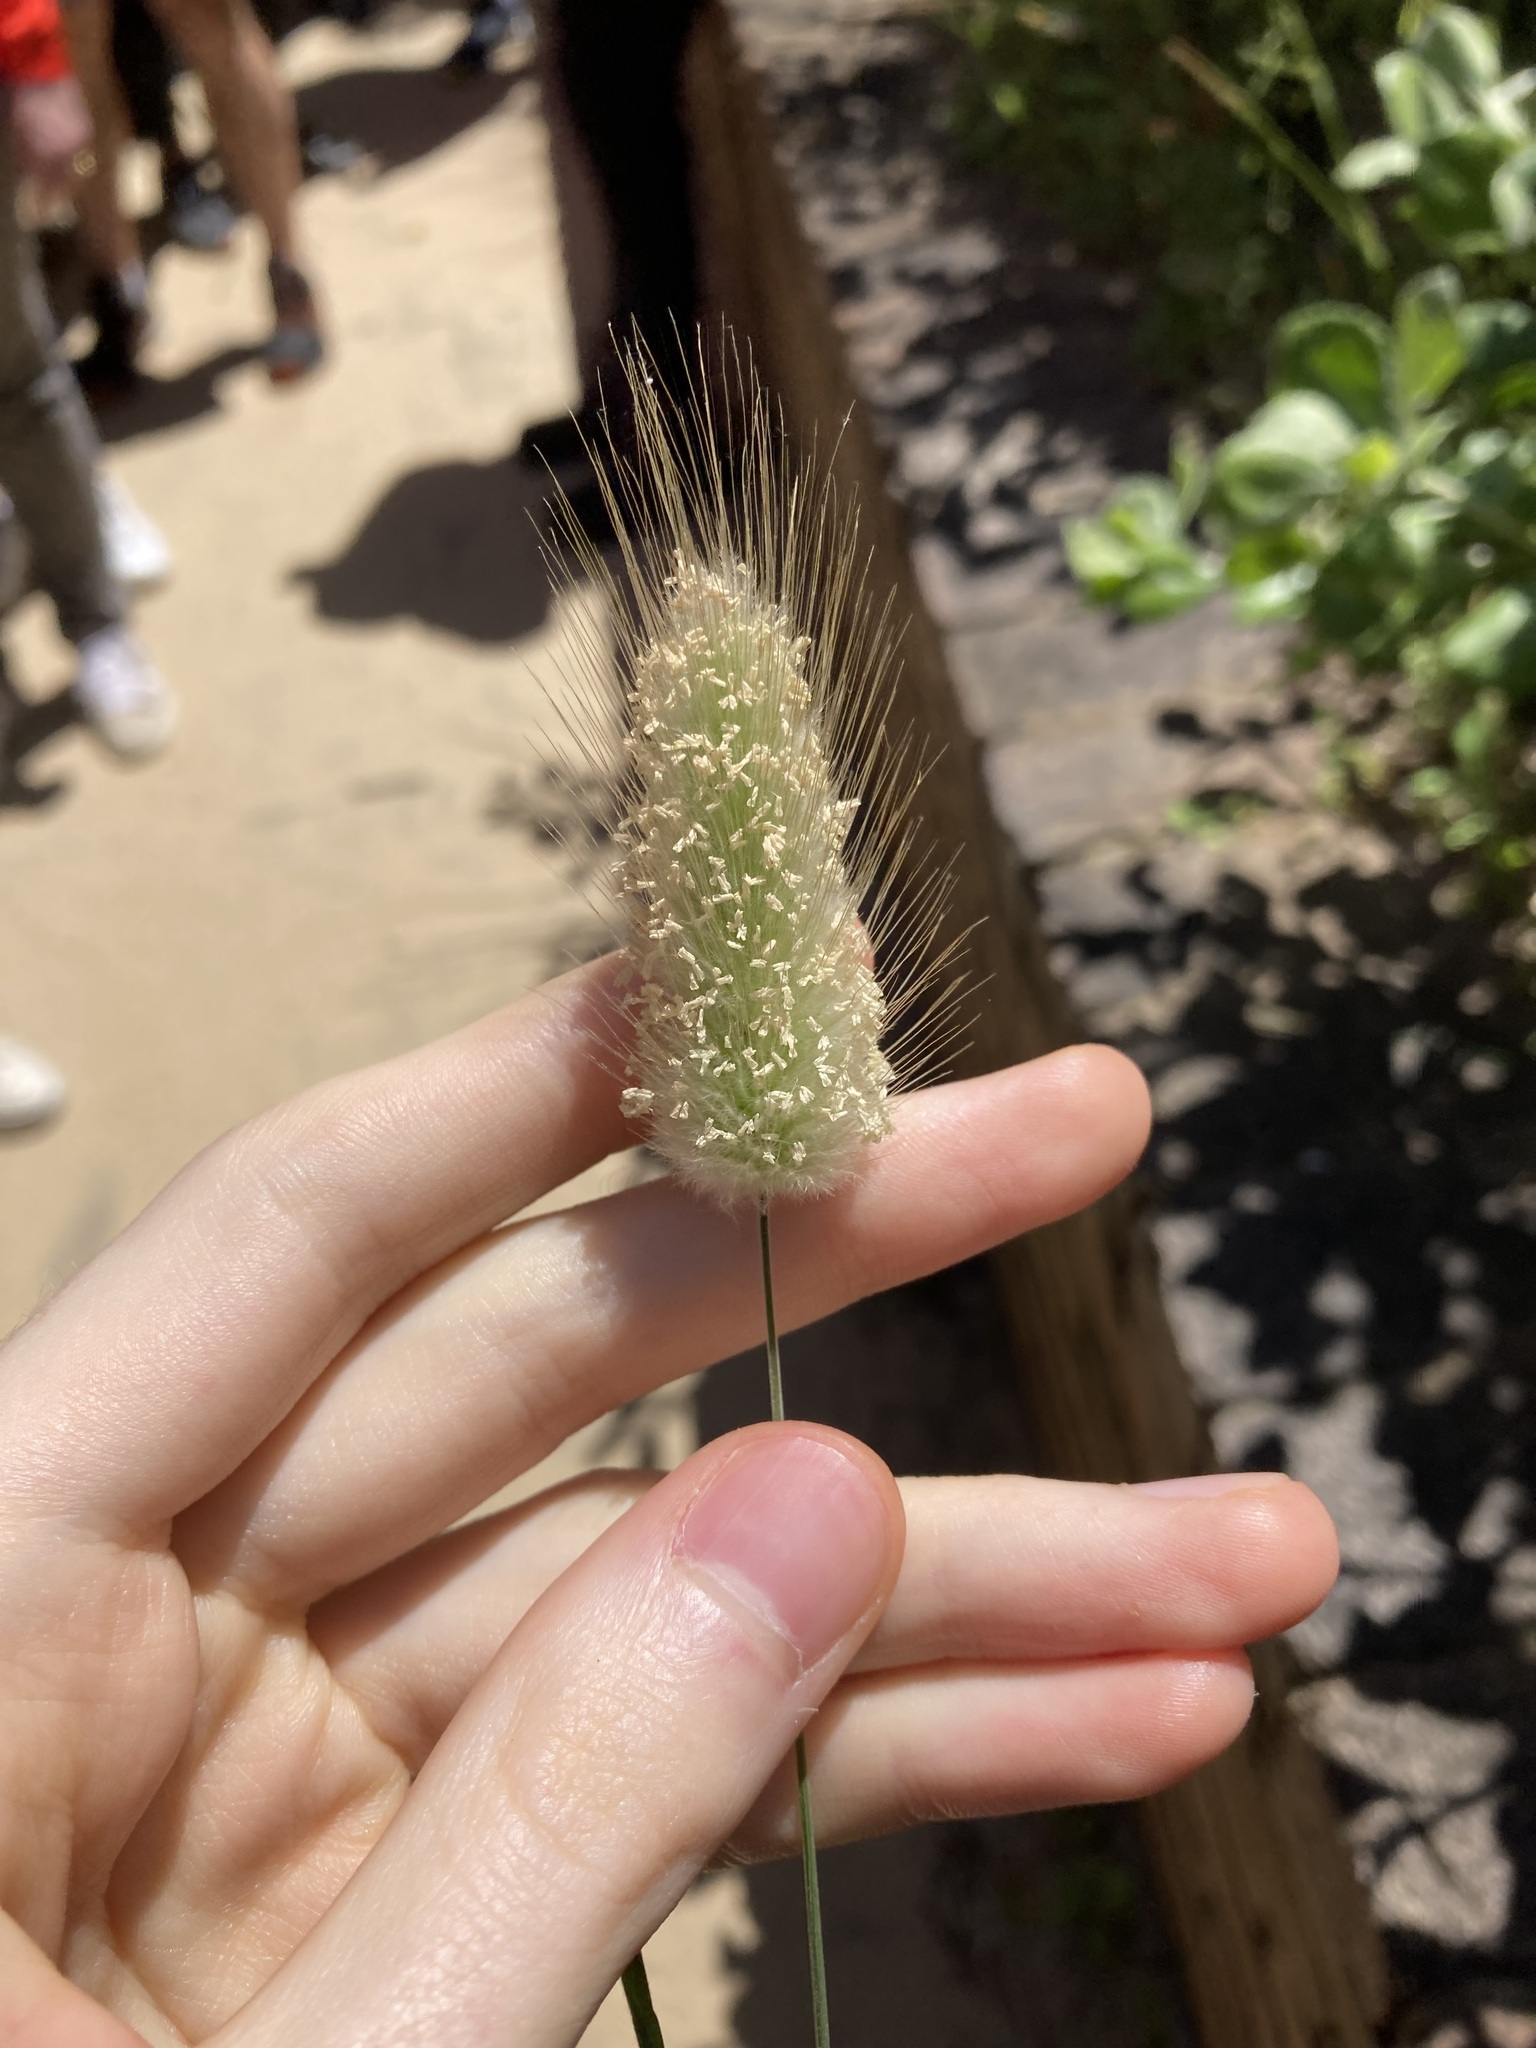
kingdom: Plantae
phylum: Tracheophyta
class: Liliopsida
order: Poales
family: Poaceae
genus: Lagurus
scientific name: Lagurus ovatus
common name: Hare's-tail
